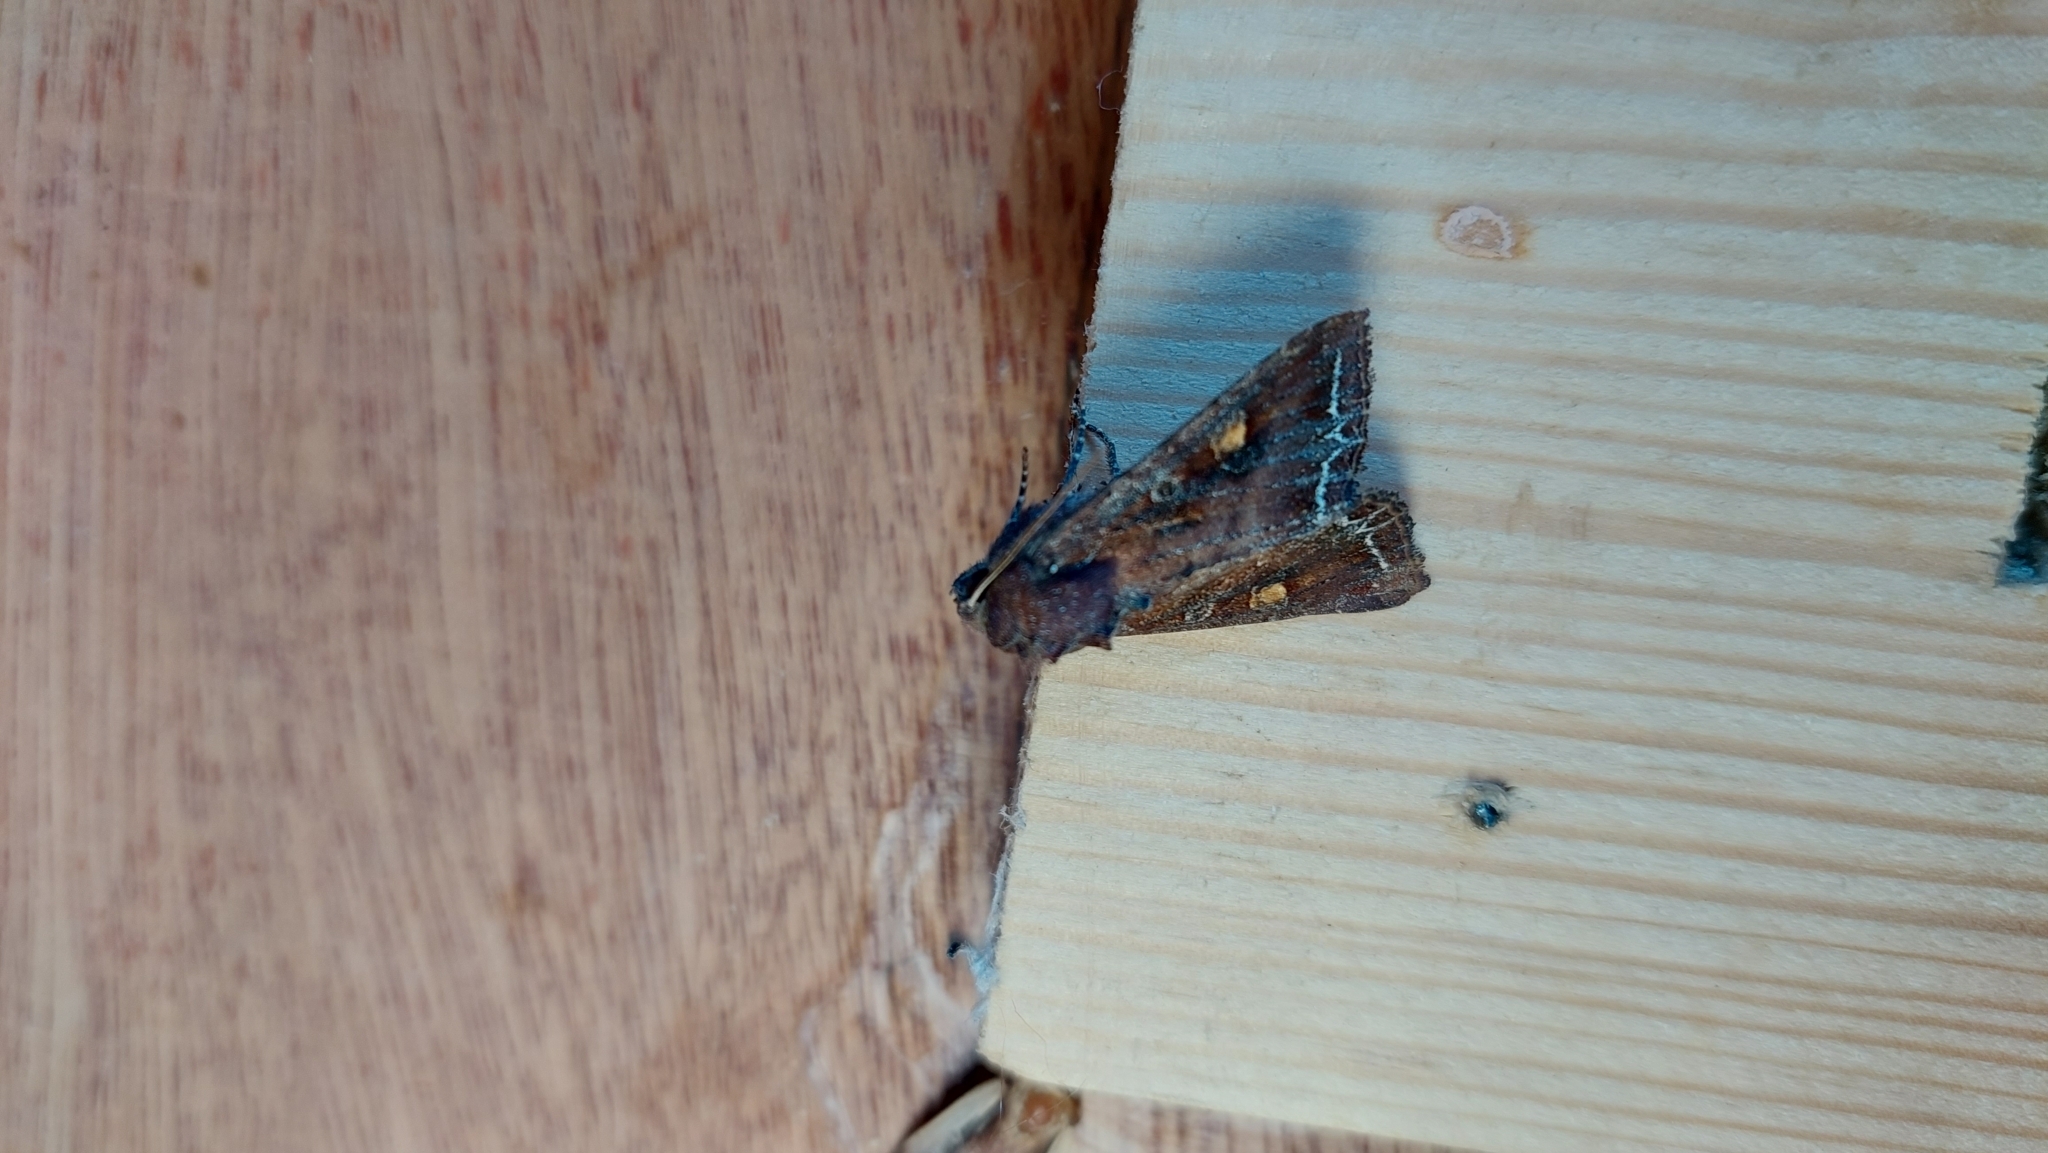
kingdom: Animalia
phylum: Arthropoda
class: Insecta
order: Lepidoptera
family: Noctuidae
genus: Lacanobia
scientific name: Lacanobia oleracea
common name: Bright-line brown-eye
